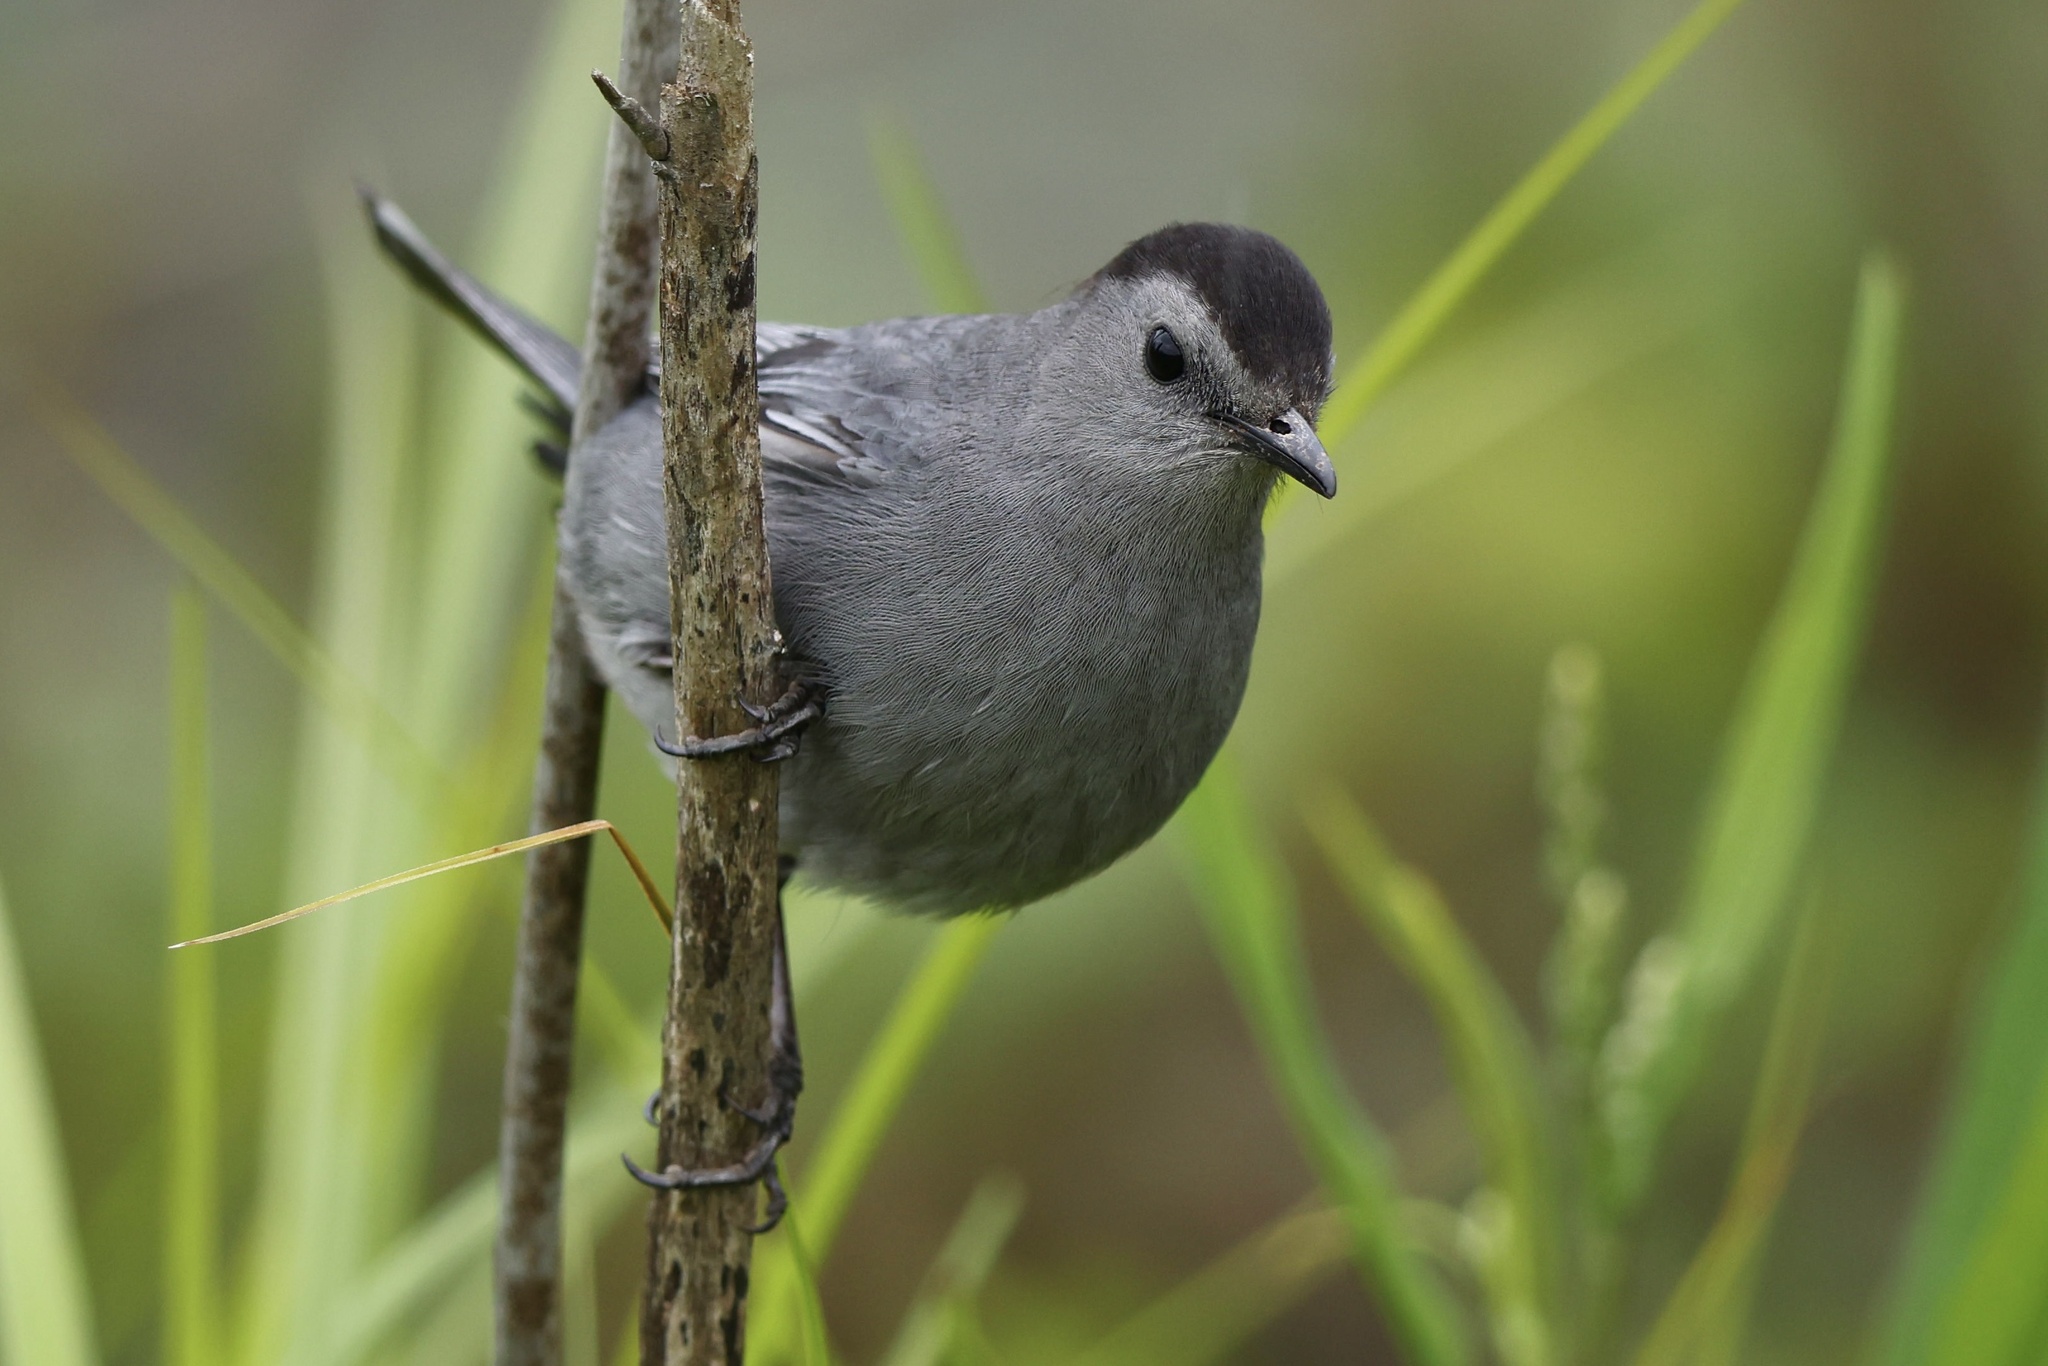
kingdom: Animalia
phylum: Chordata
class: Aves
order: Passeriformes
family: Mimidae
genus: Dumetella
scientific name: Dumetella carolinensis
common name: Gray catbird
